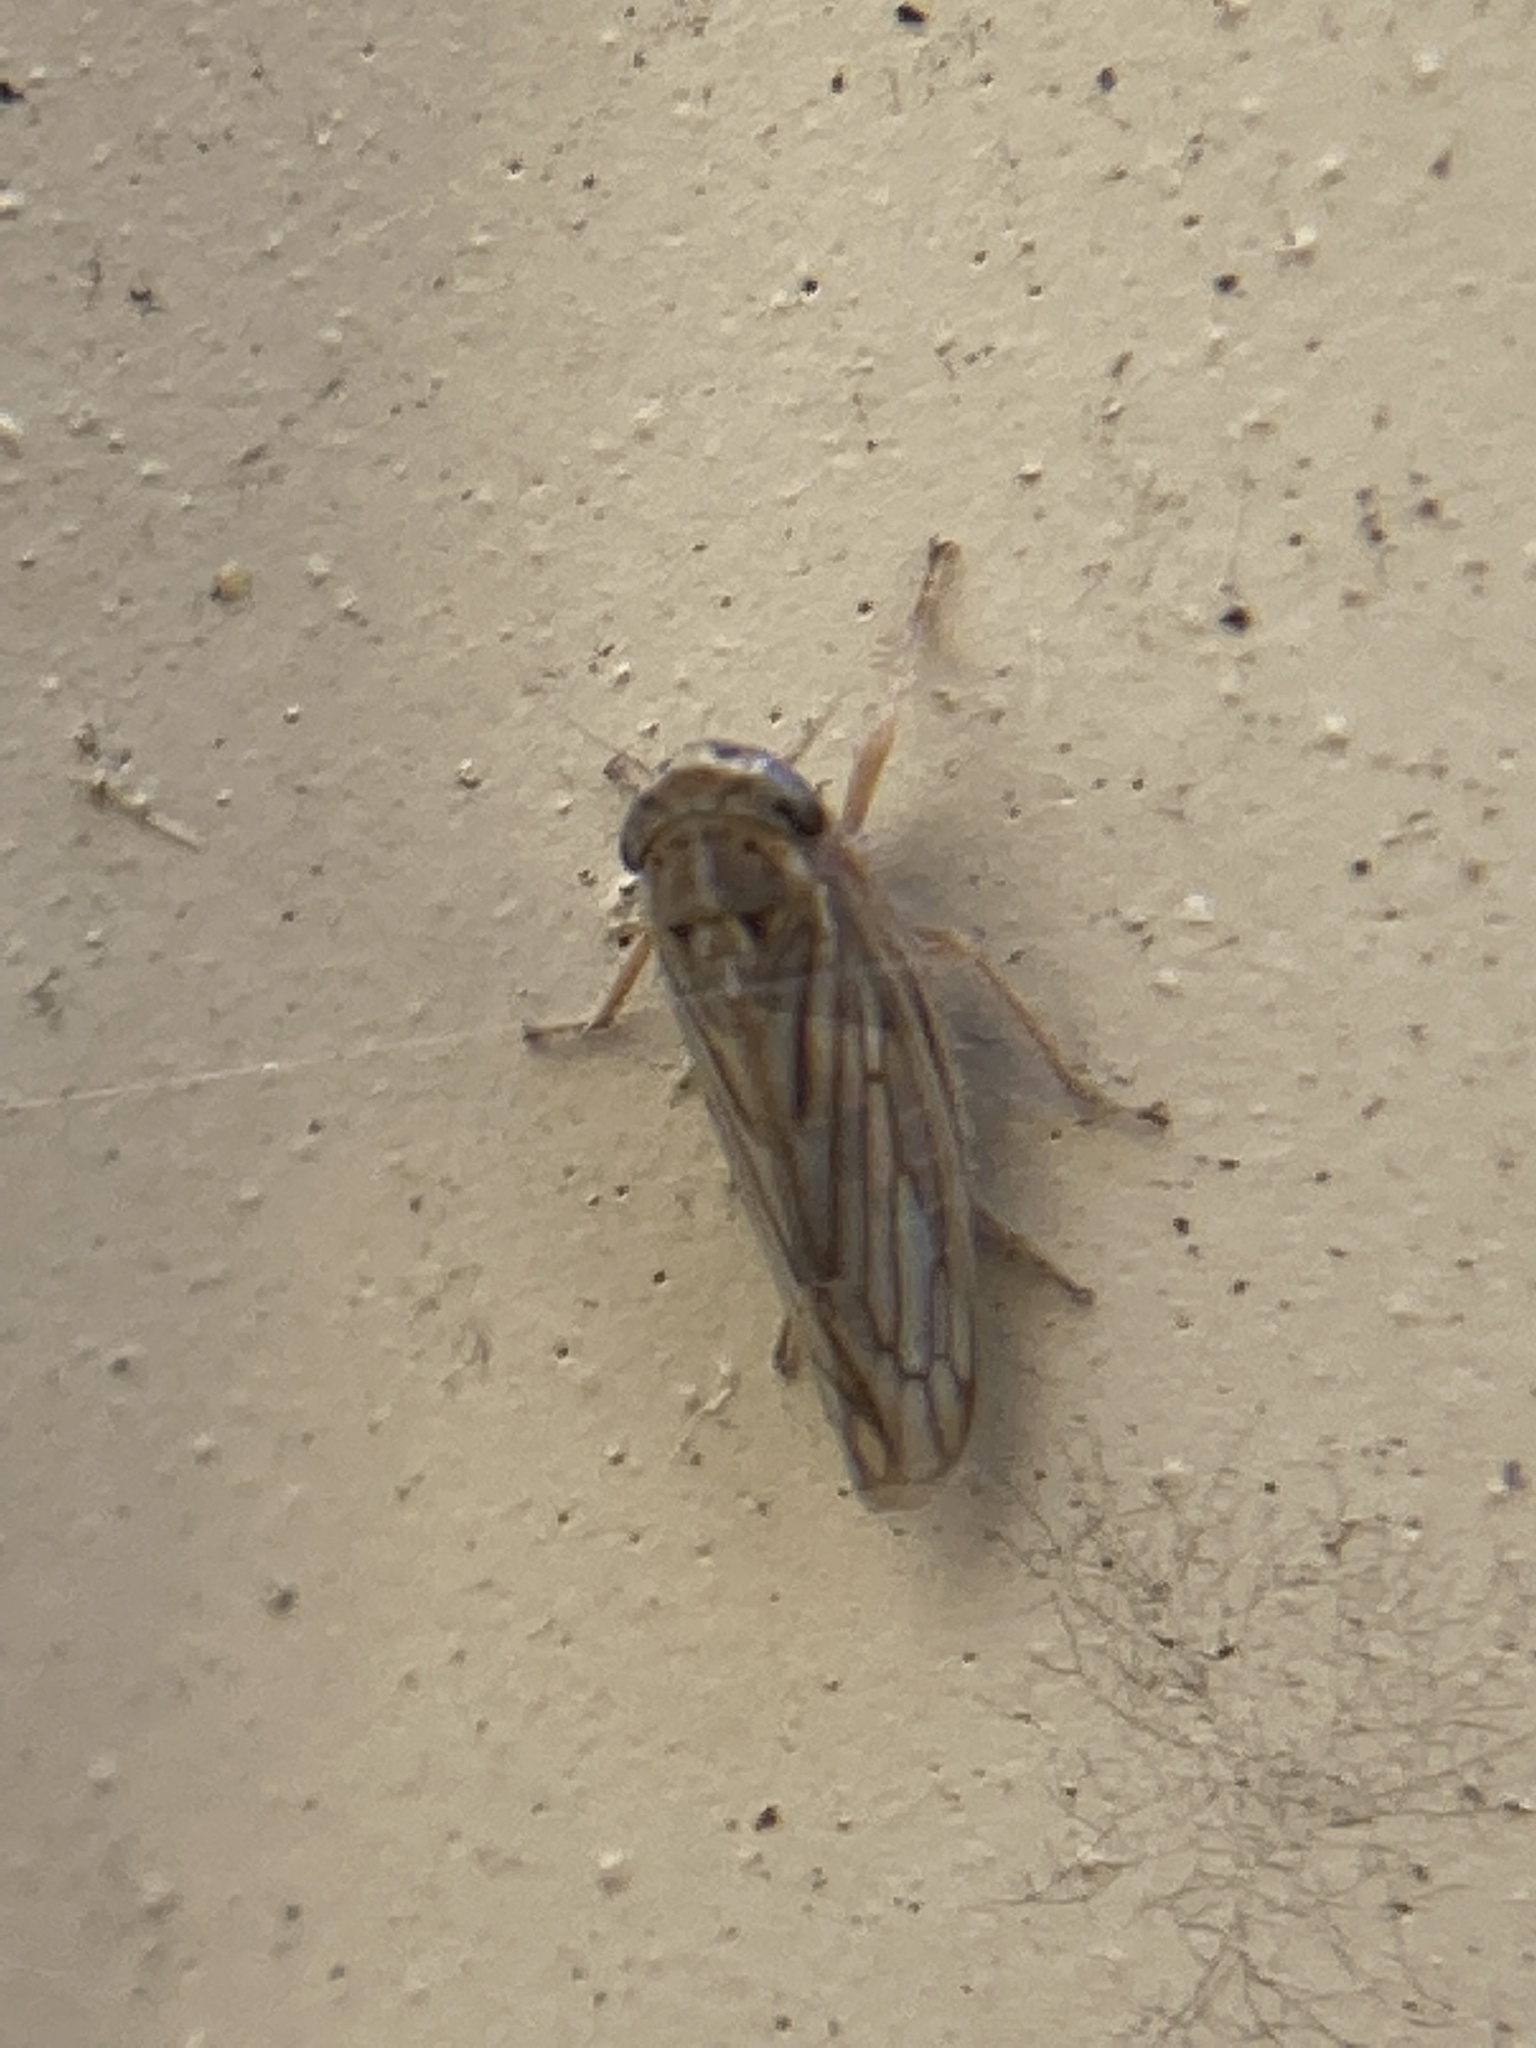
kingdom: Animalia
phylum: Arthropoda
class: Insecta
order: Hemiptera
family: Cicadellidae
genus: Exitianus
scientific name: Exitianus exitiosus
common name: Gray lawn leafhopper
